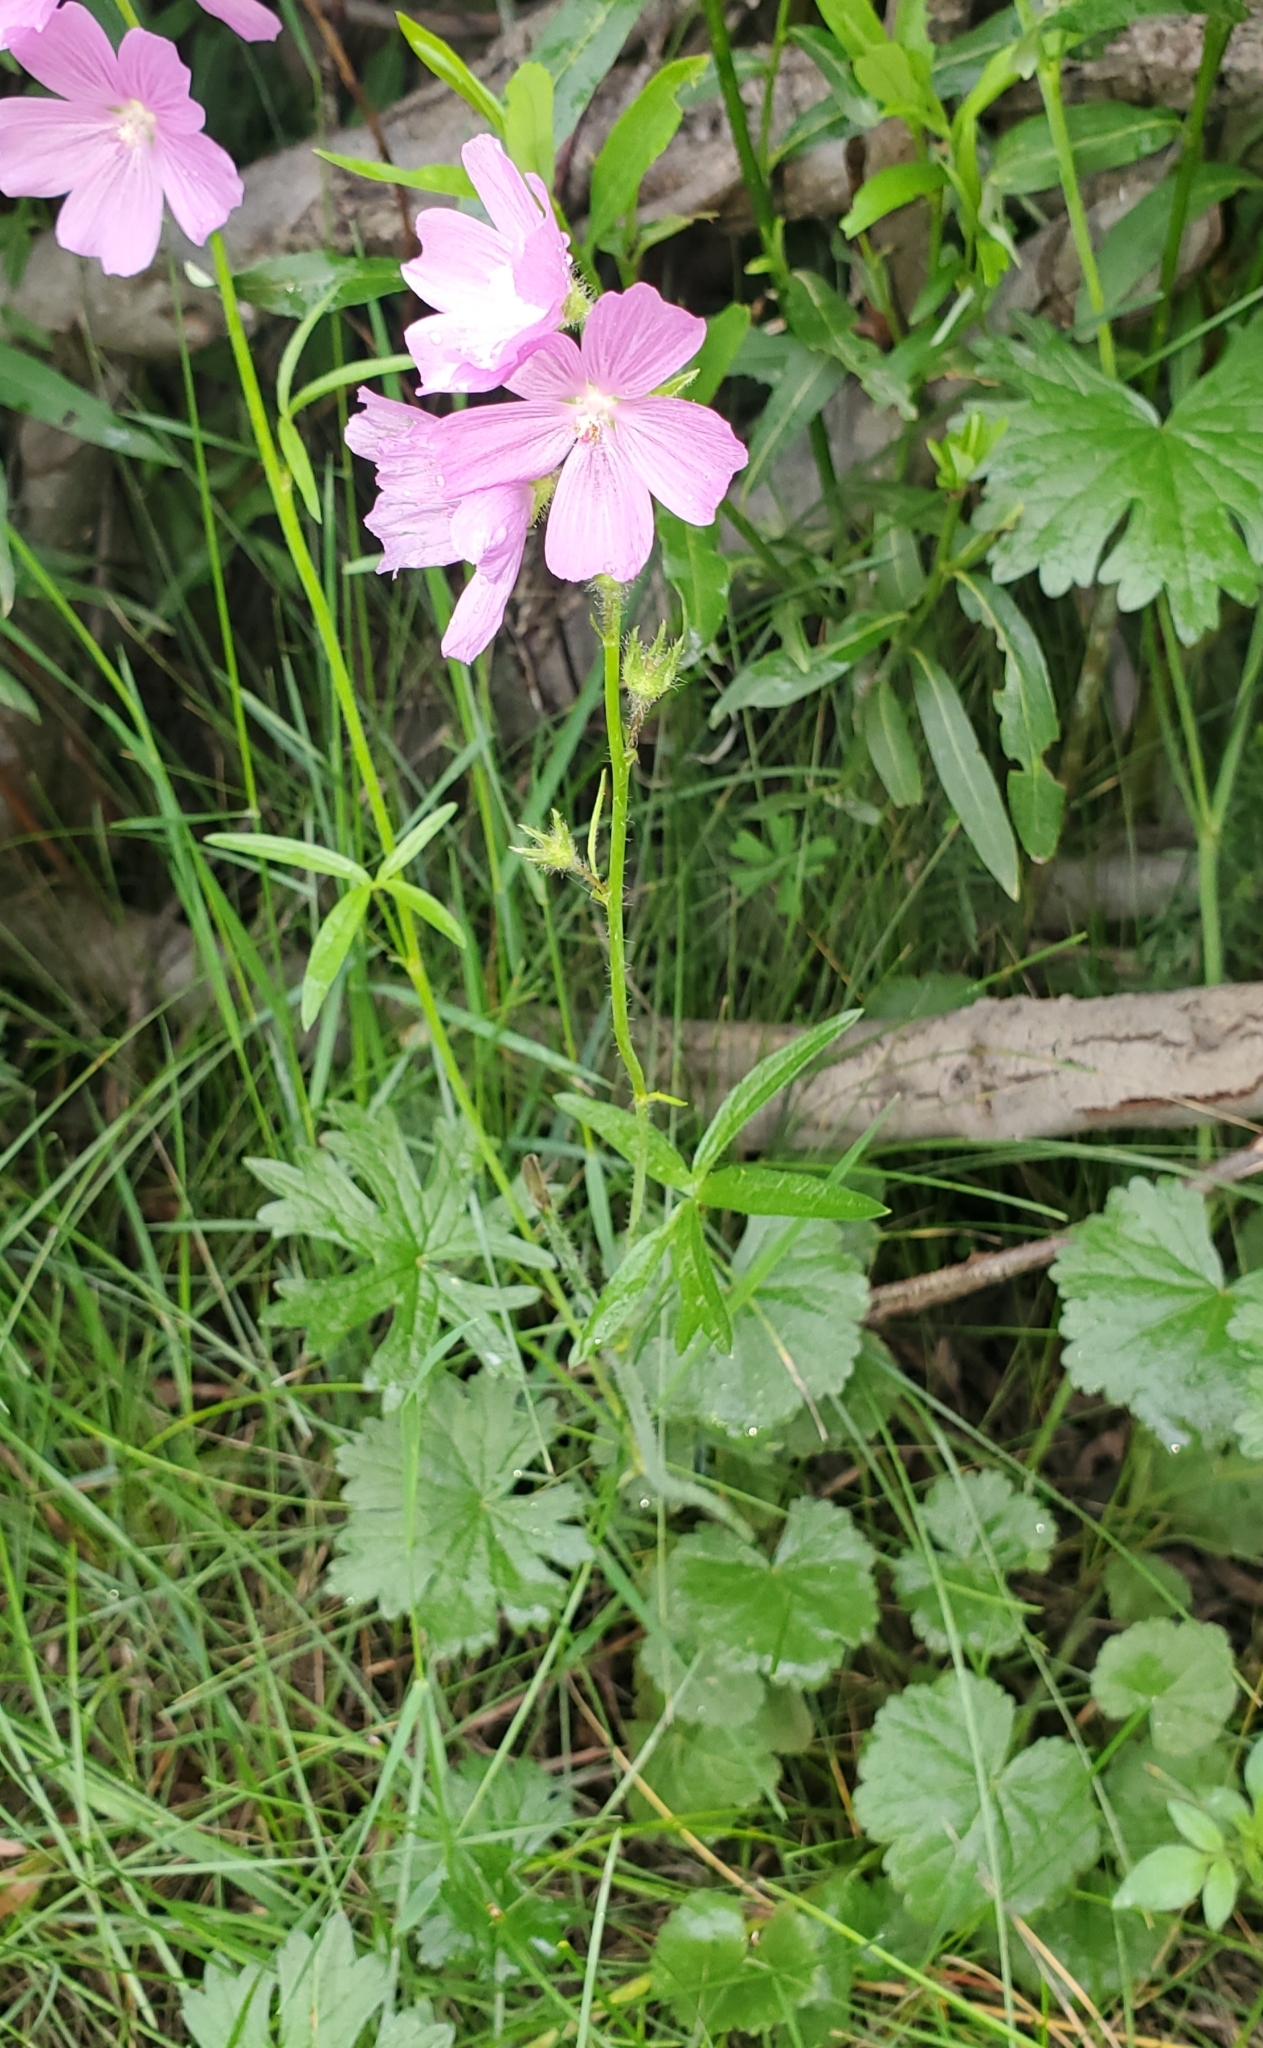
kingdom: Plantae
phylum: Tracheophyta
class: Magnoliopsida
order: Malvales
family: Malvaceae
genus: Sidalcea
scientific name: Sidalcea neomexicana
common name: New mexico checker
